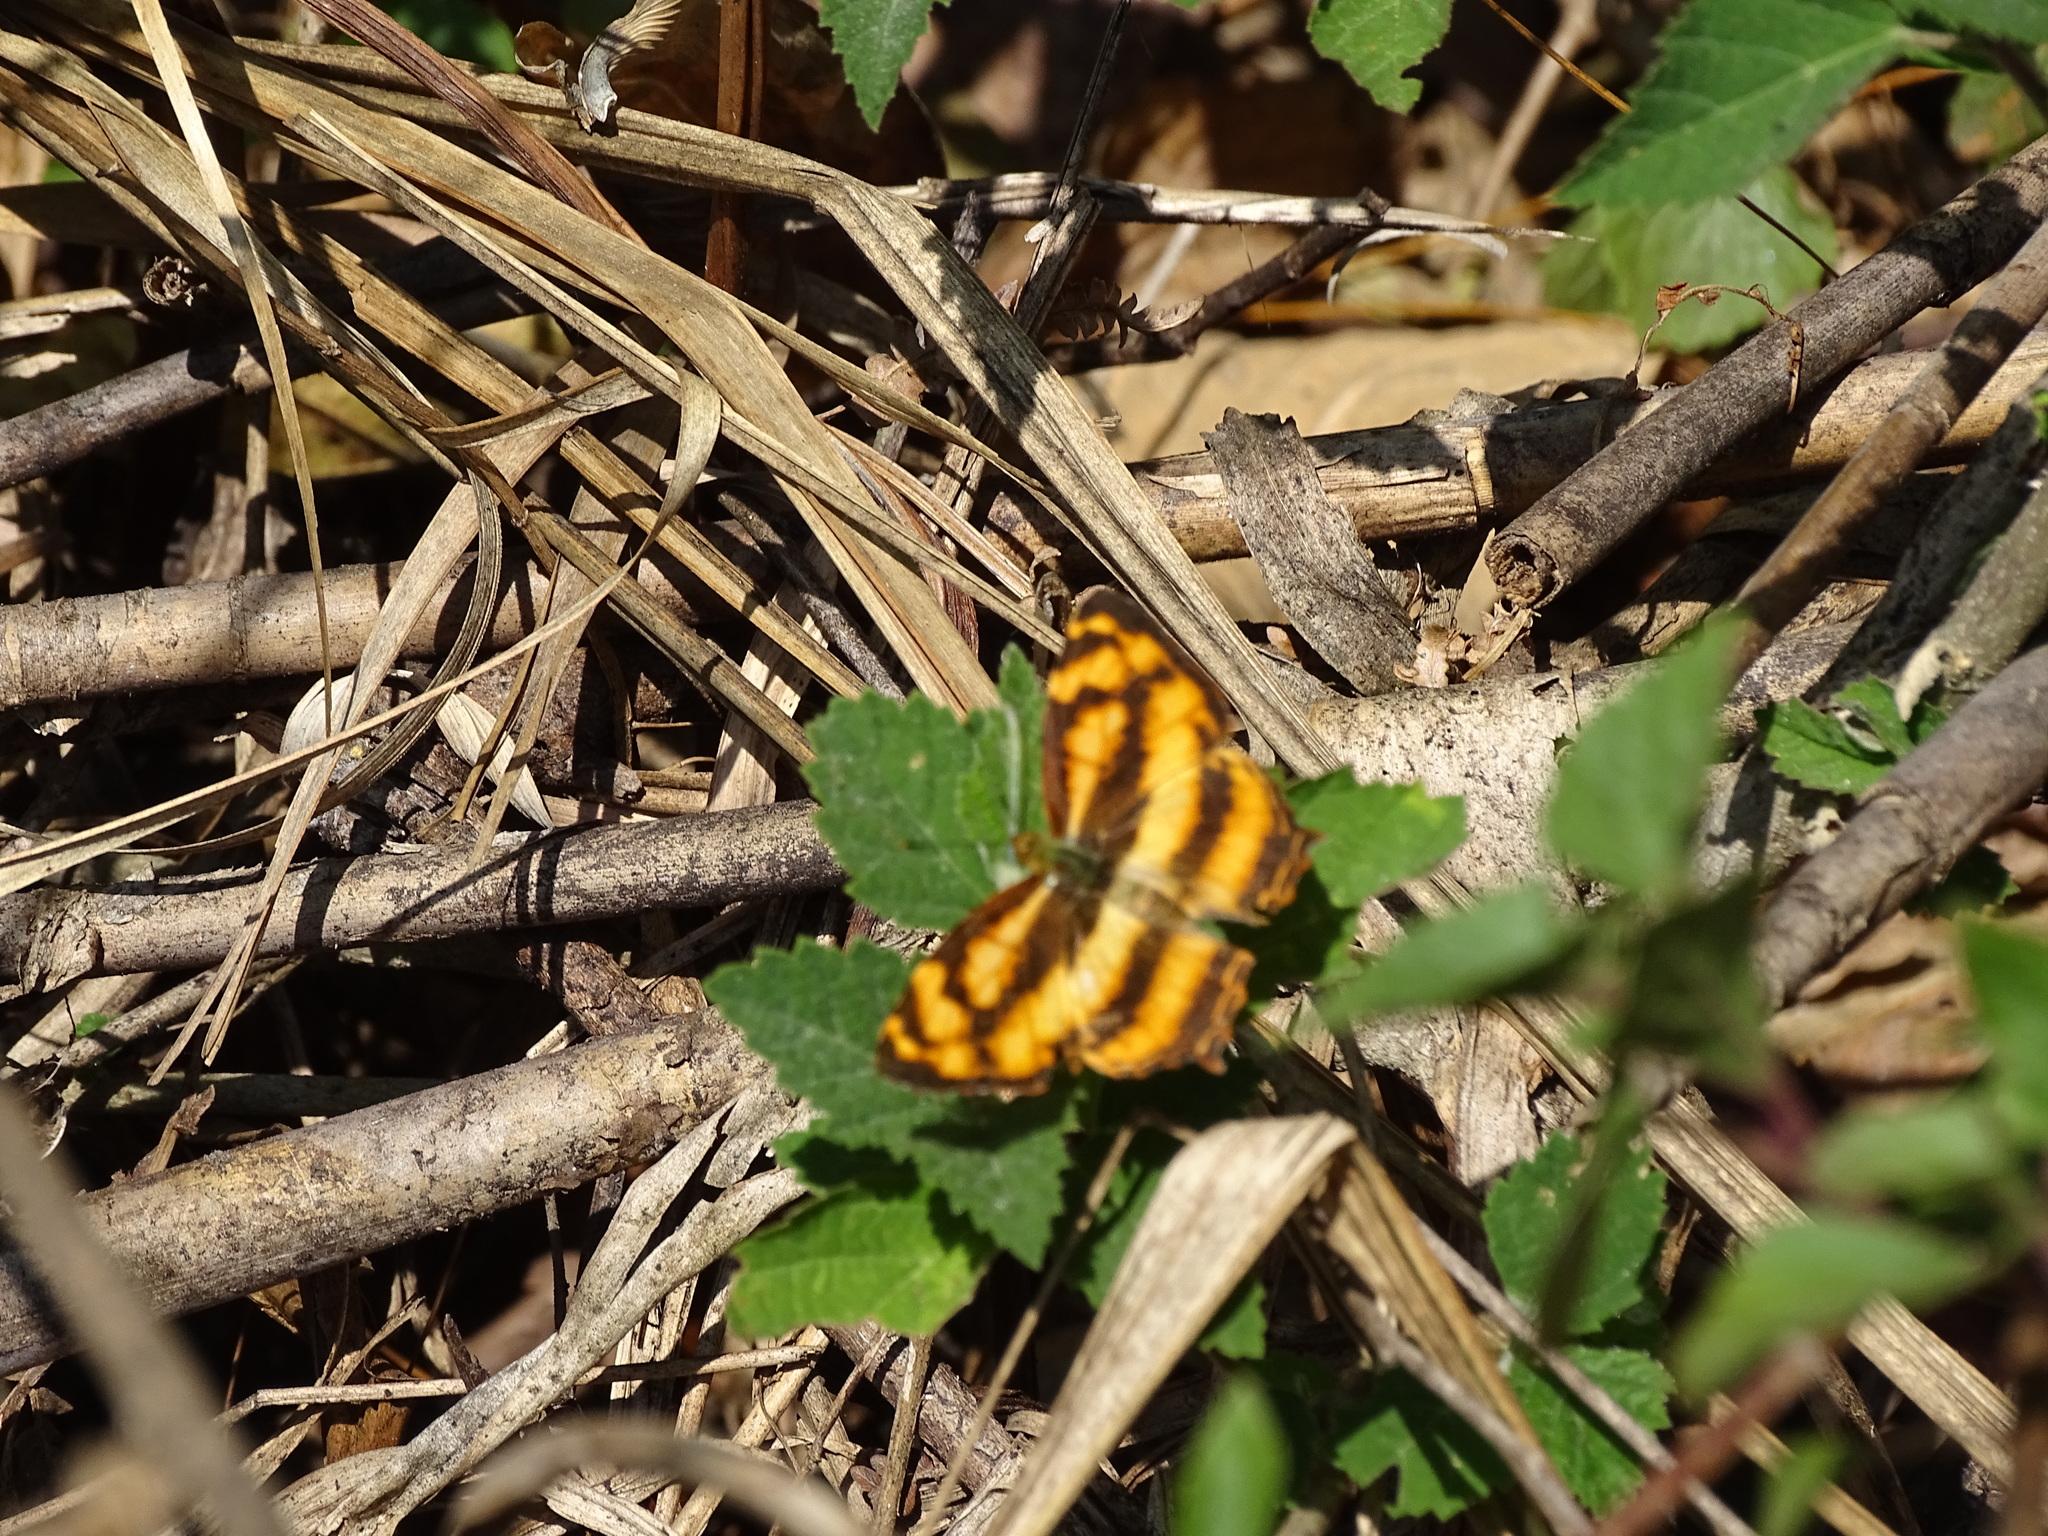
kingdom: Animalia
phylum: Arthropoda
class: Insecta
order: Lepidoptera
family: Nymphalidae
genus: Symbrenthia
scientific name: Symbrenthia hypselis
